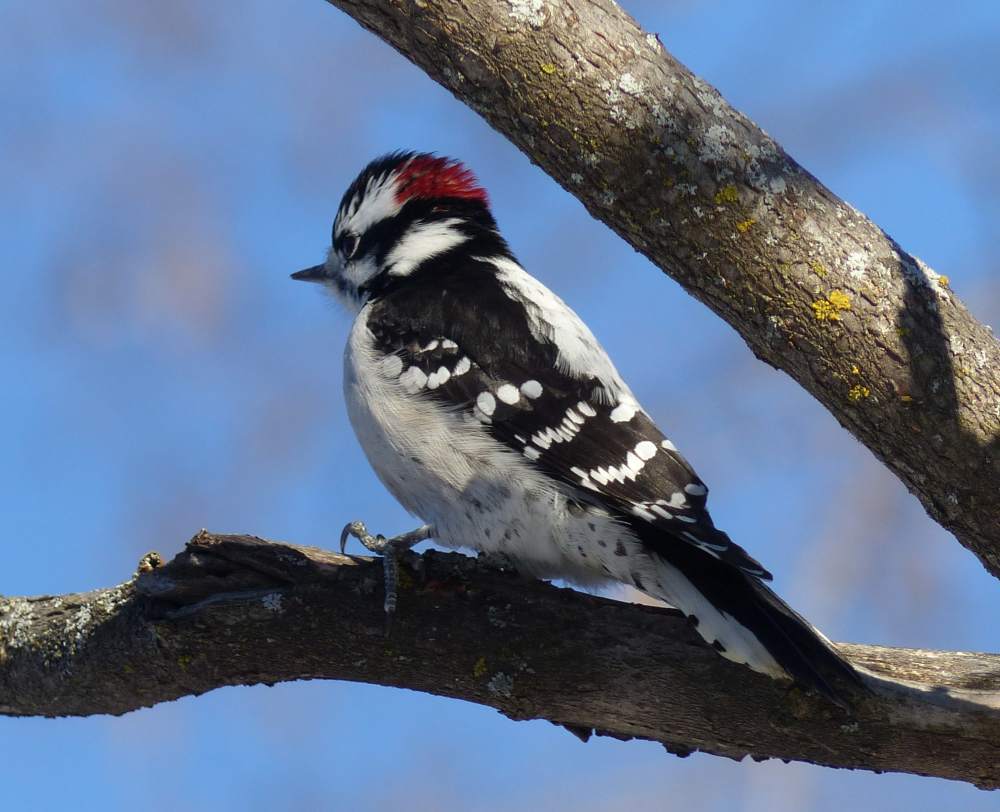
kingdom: Animalia
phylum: Chordata
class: Aves
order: Piciformes
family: Picidae
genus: Dryobates
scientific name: Dryobates pubescens
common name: Downy woodpecker
